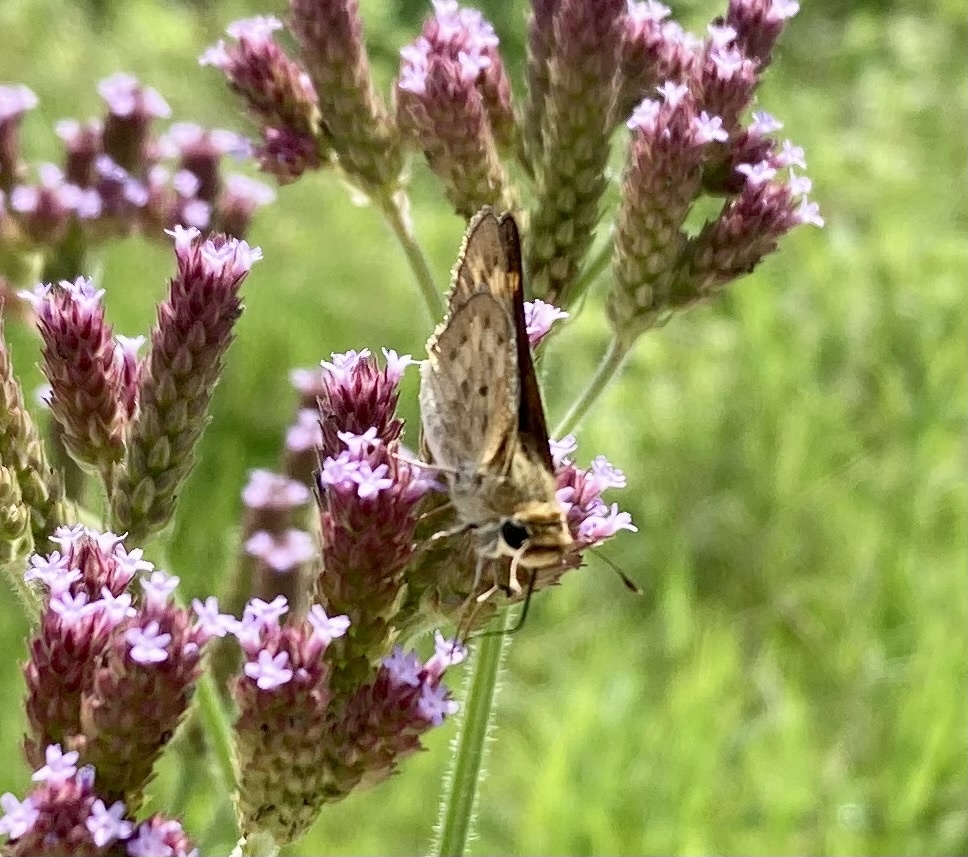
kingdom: Animalia
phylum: Arthropoda
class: Insecta
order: Lepidoptera
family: Hesperiidae
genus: Hylephila
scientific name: Hylephila phyleus
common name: Fiery skipper
